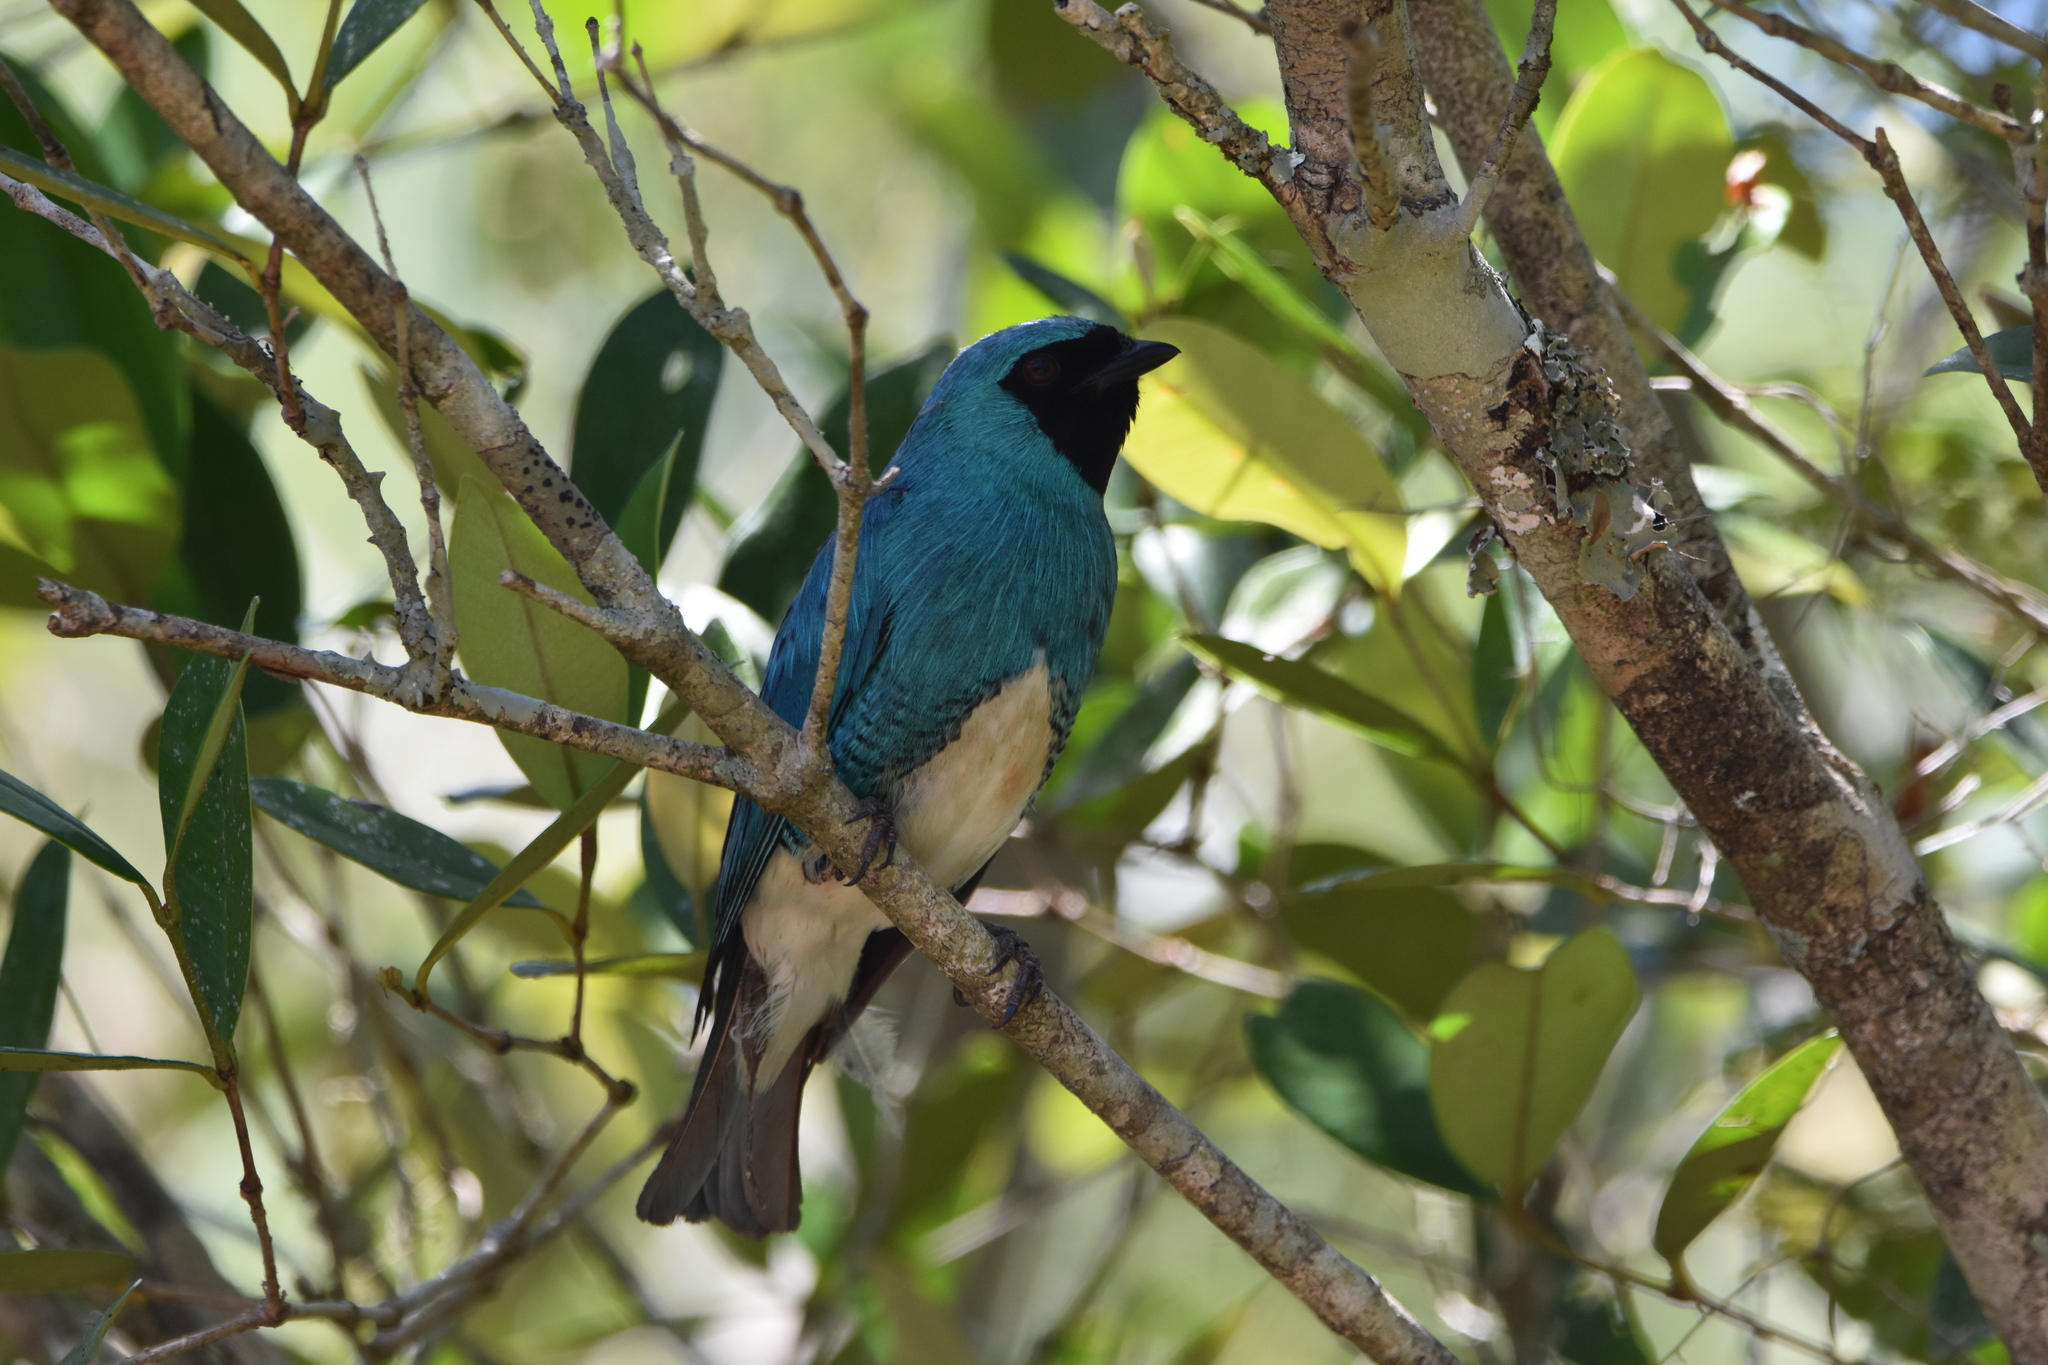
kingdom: Animalia
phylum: Chordata
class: Aves
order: Passeriformes
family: Thraupidae
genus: Tersina
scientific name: Tersina viridis
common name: Swallow tanager
